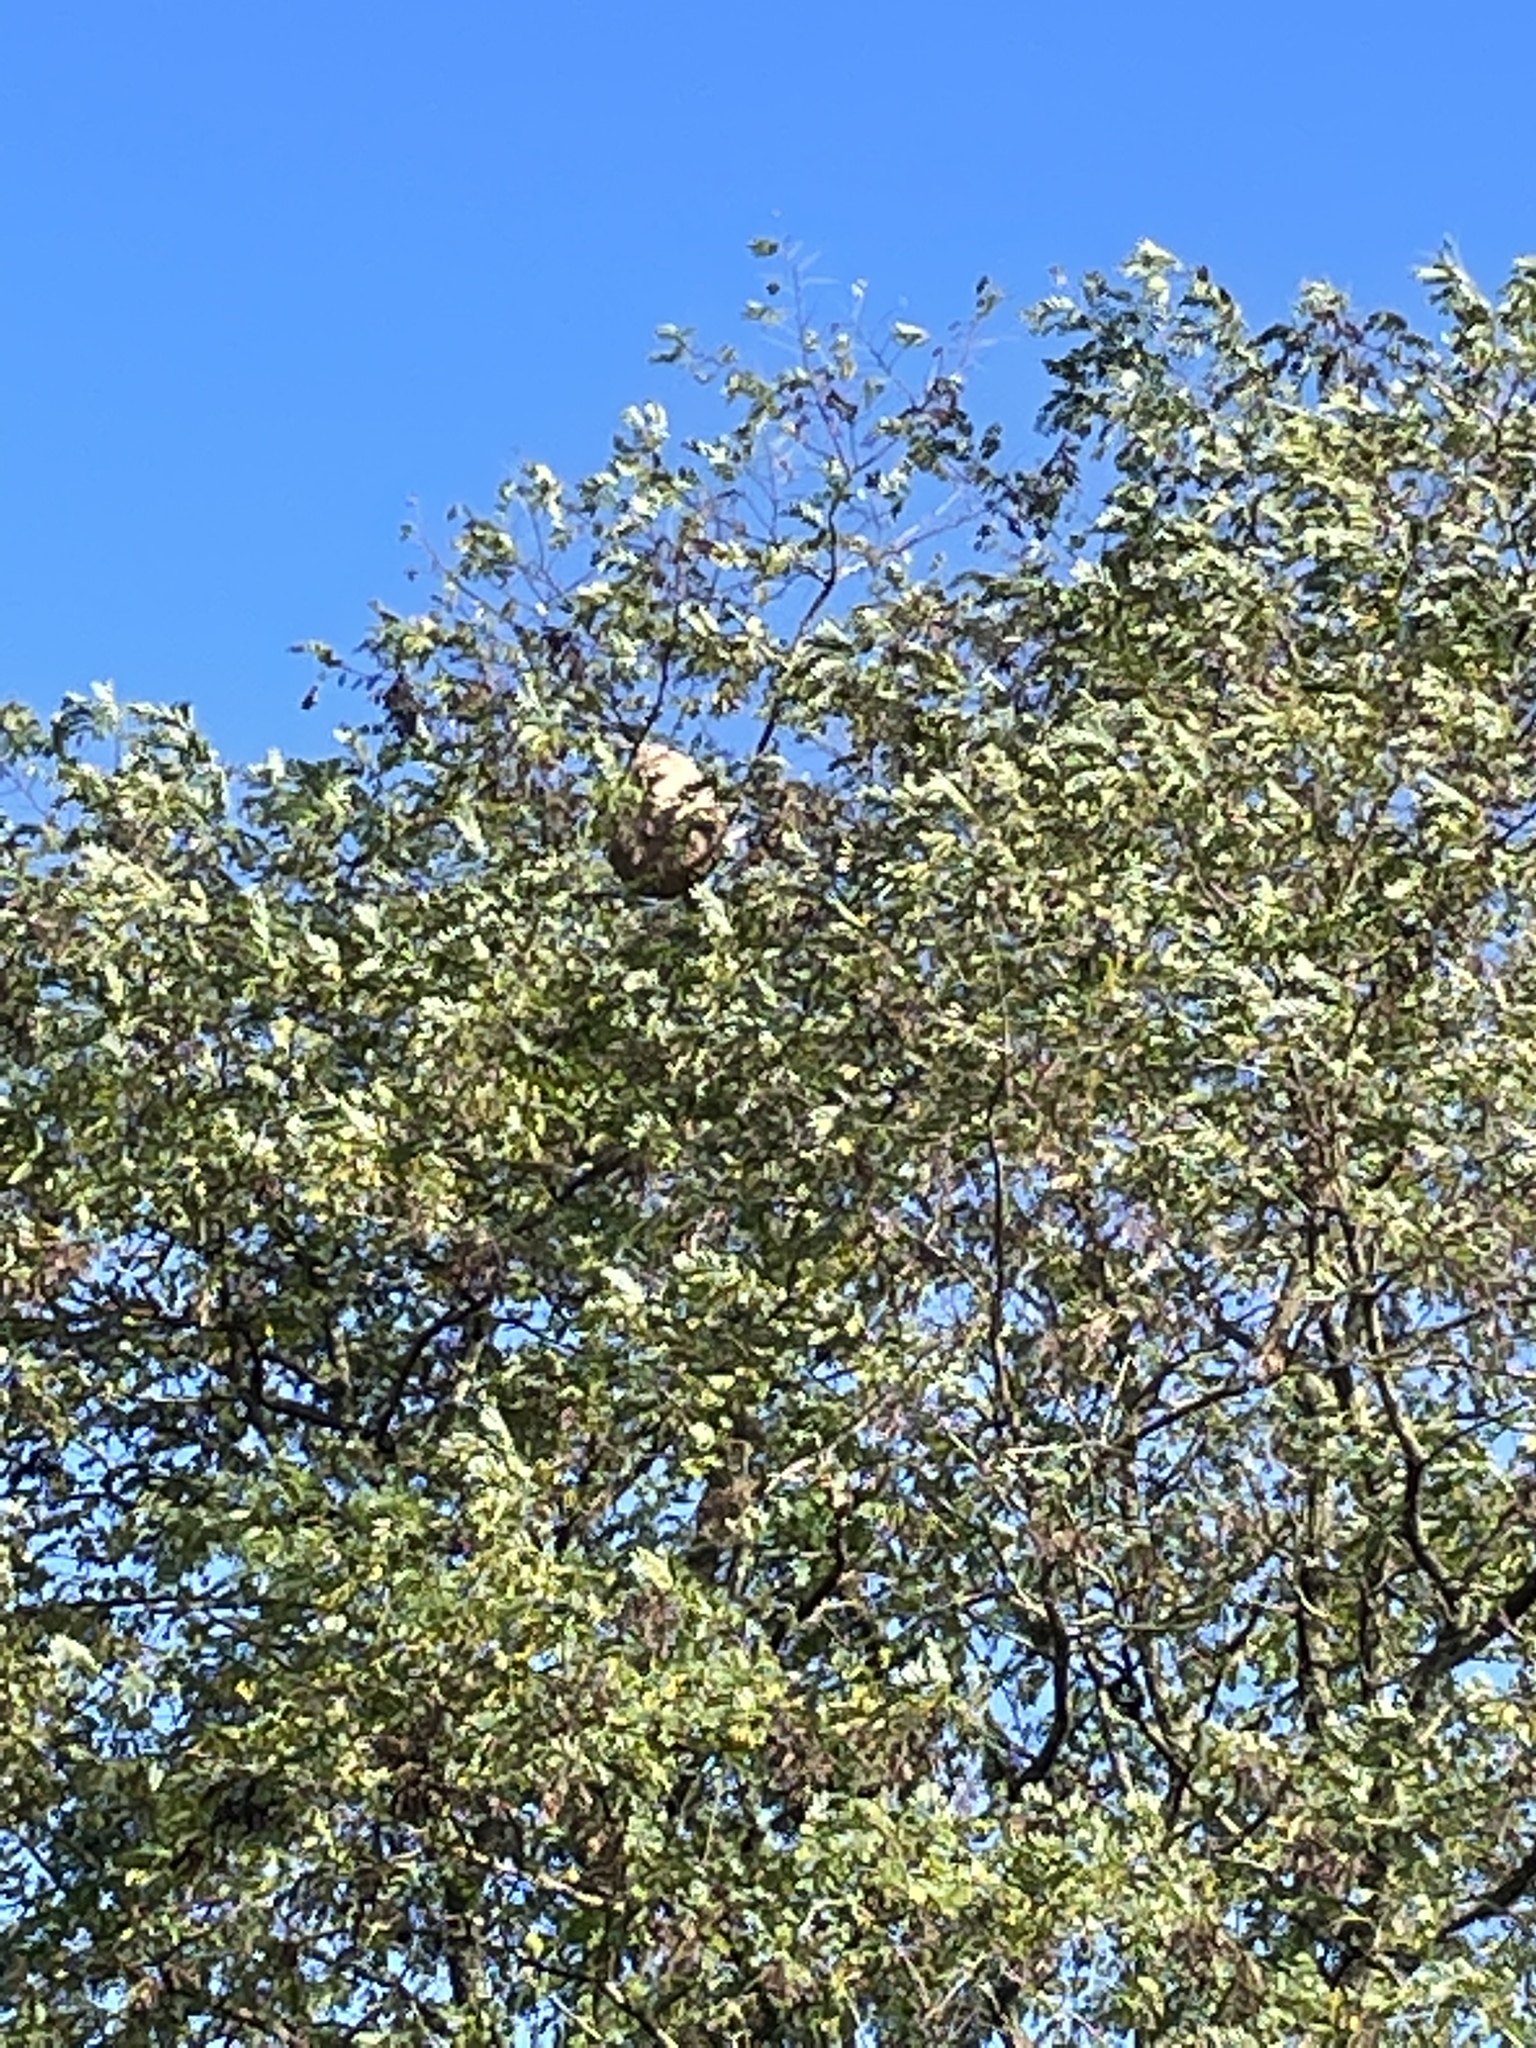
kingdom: Animalia
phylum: Arthropoda
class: Insecta
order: Hymenoptera
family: Vespidae
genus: Vespa
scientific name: Vespa velutina
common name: Asian hornet
